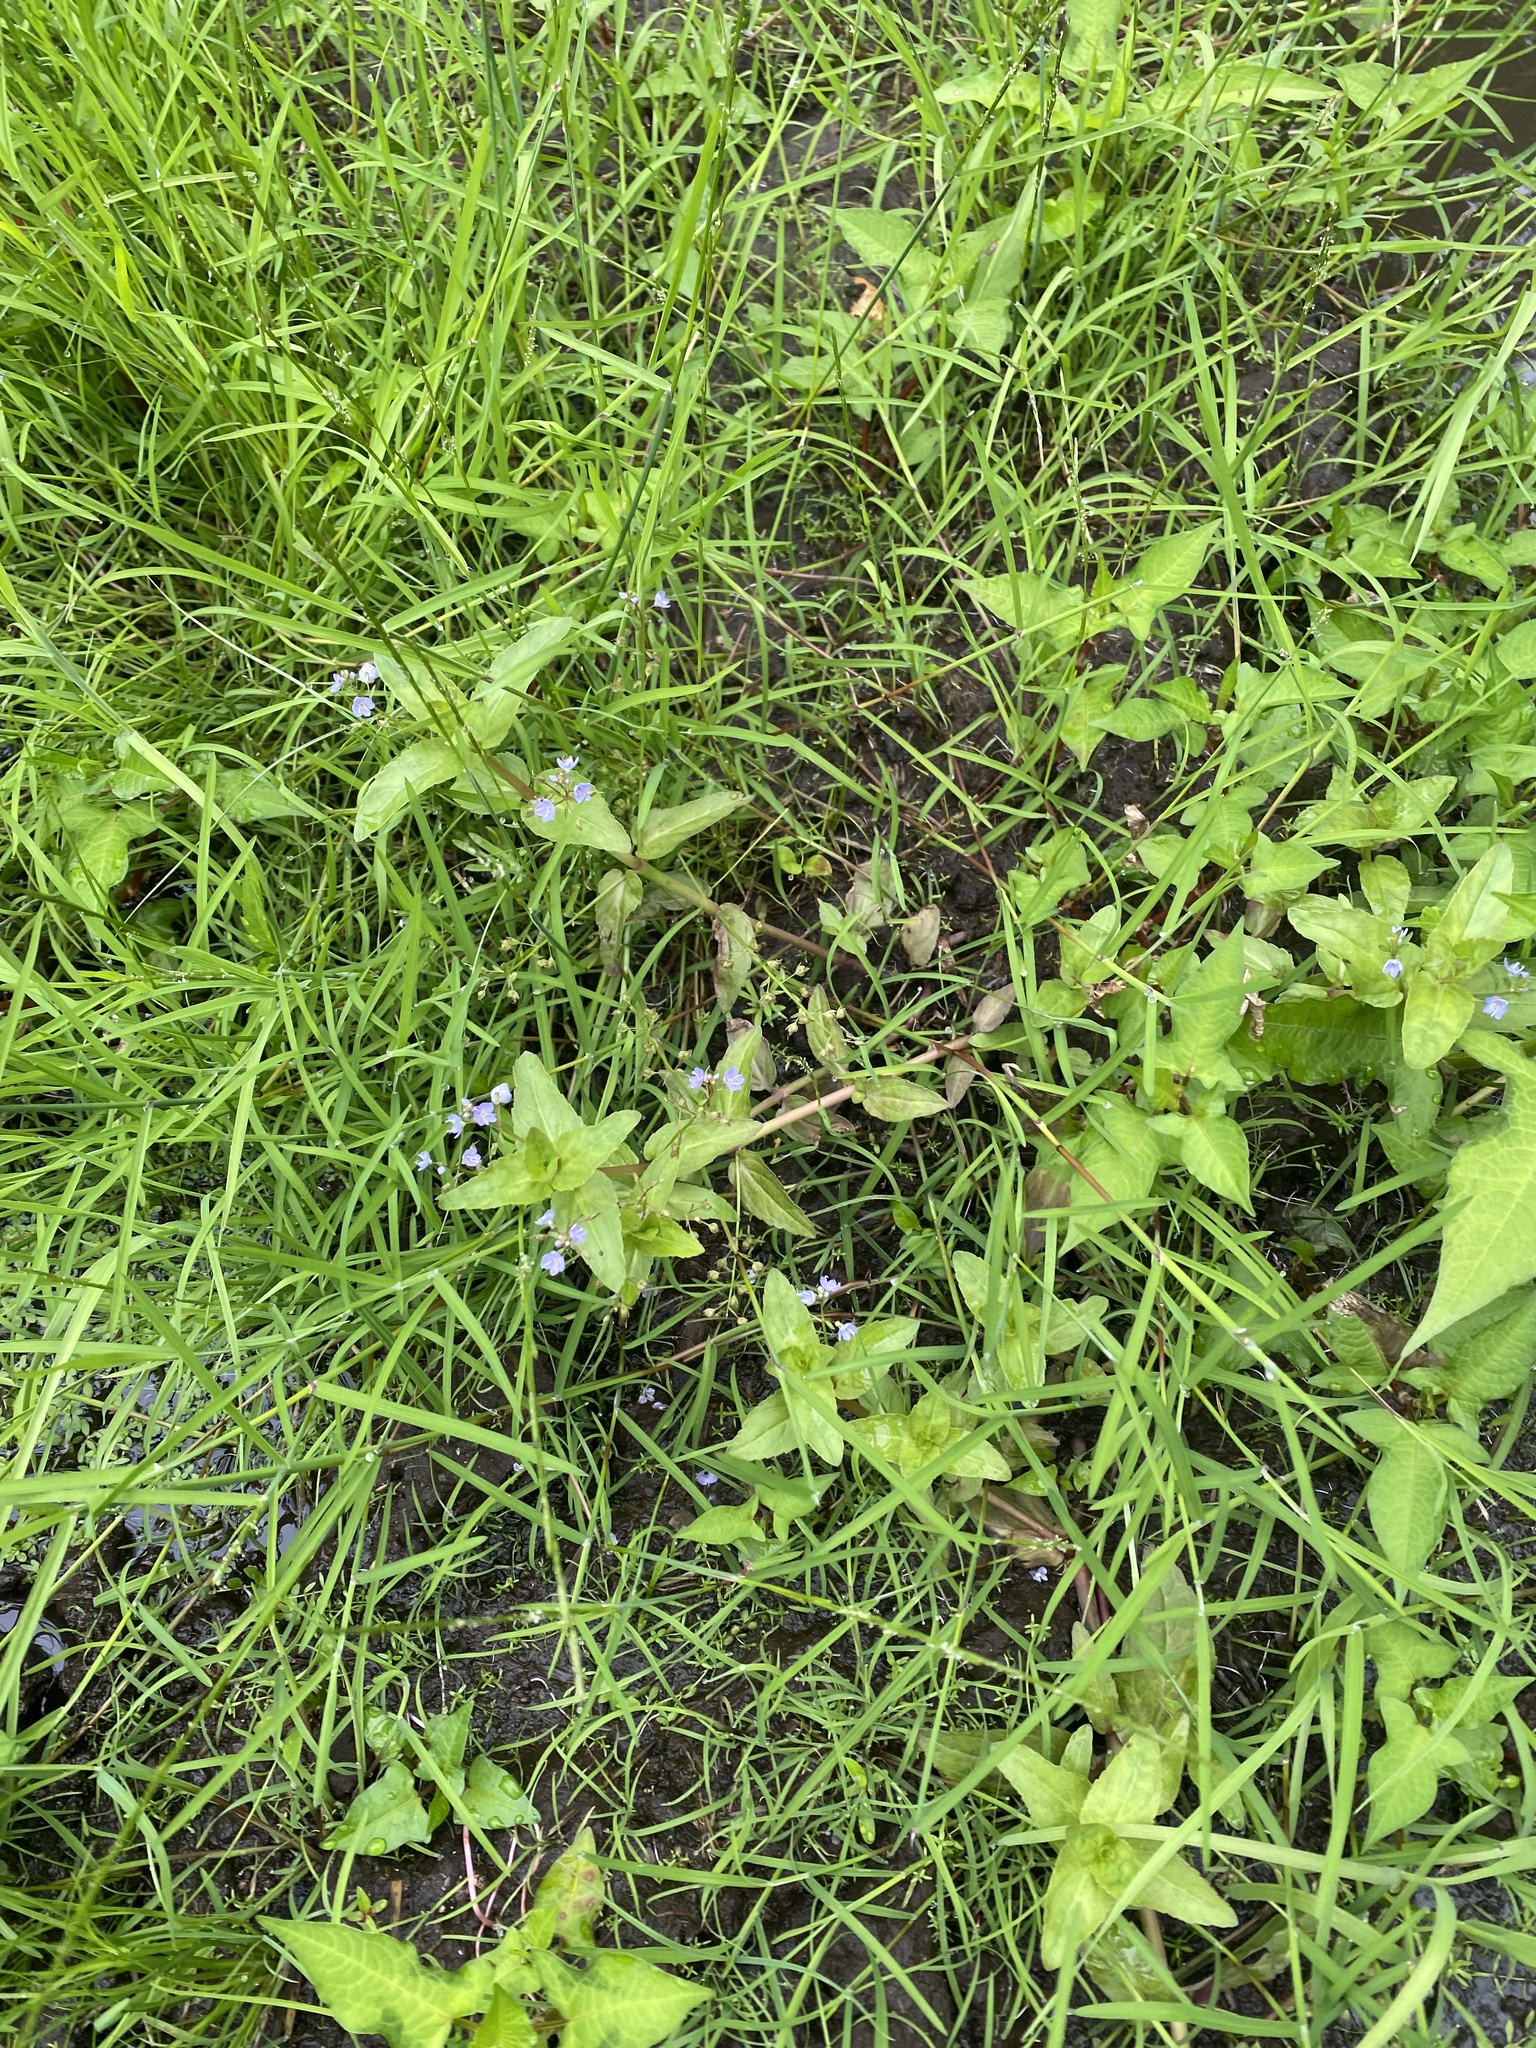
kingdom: Plantae
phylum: Tracheophyta
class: Magnoliopsida
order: Lamiales
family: Plantaginaceae
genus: Veronica
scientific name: Veronica americana
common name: American brooklime
